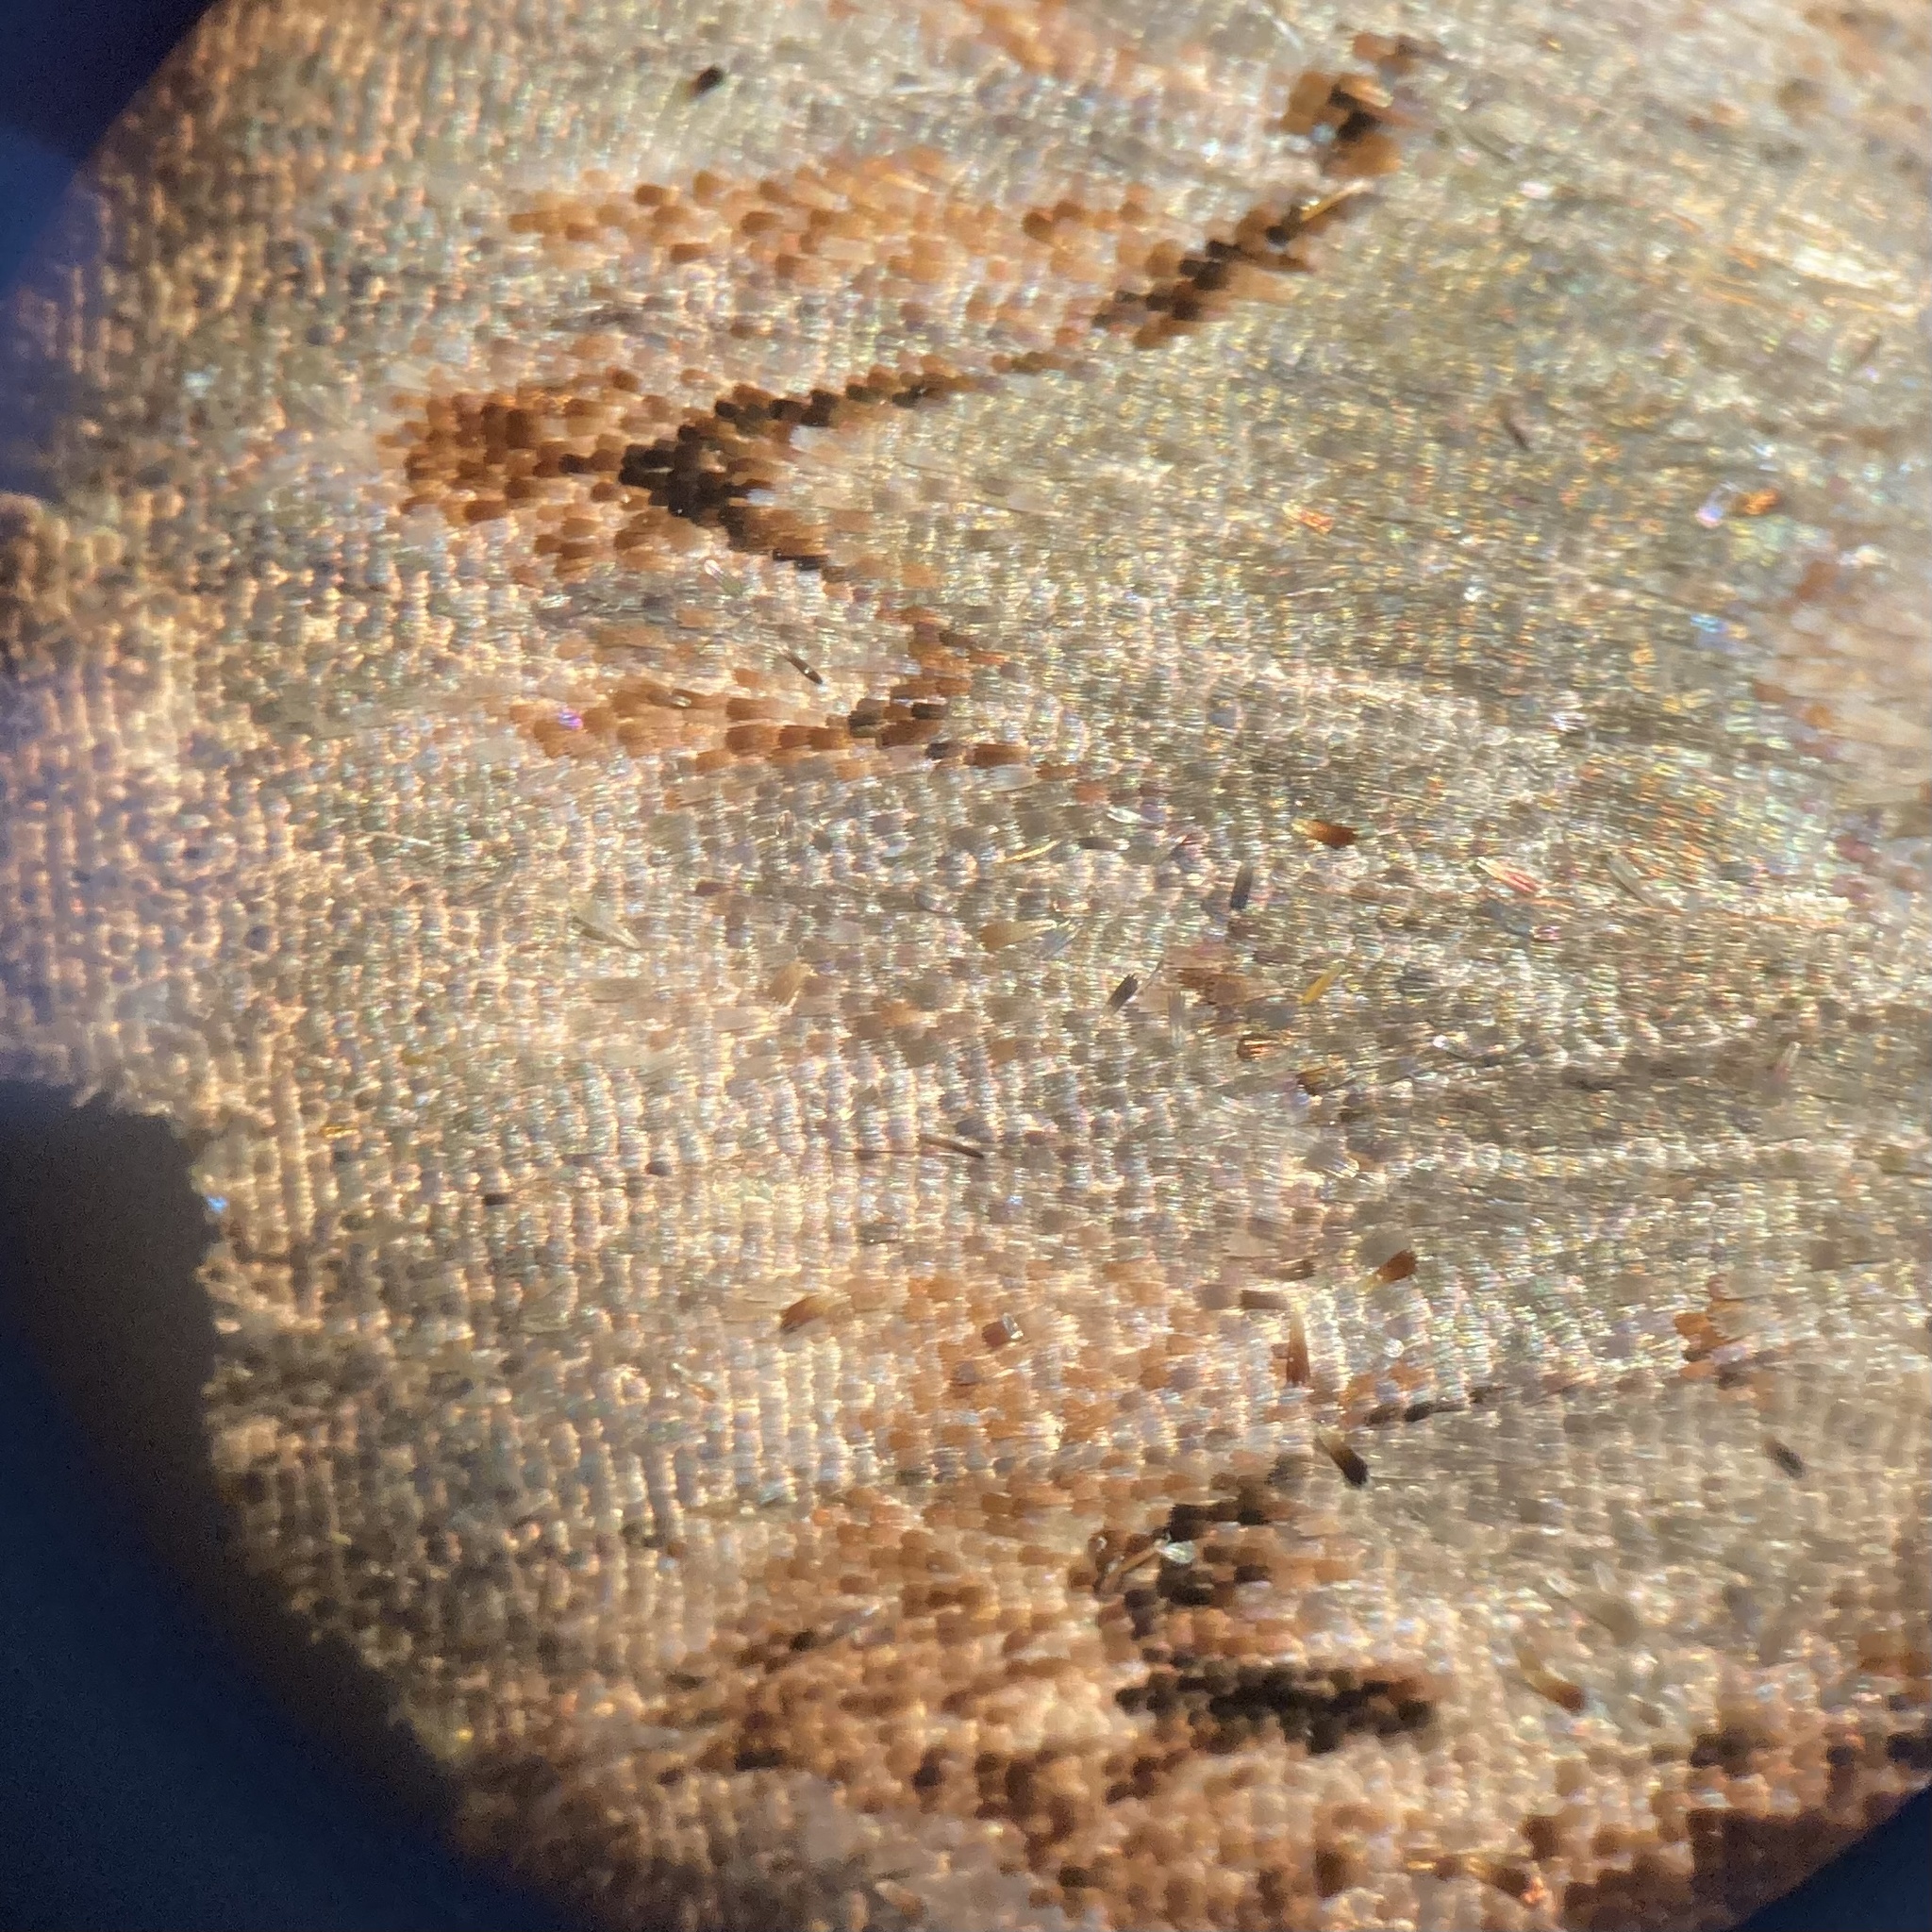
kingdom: Animalia
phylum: Arthropoda
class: Insecta
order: Lepidoptera
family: Erebidae
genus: Catocala
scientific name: Catocala grynea
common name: Woody underwing
